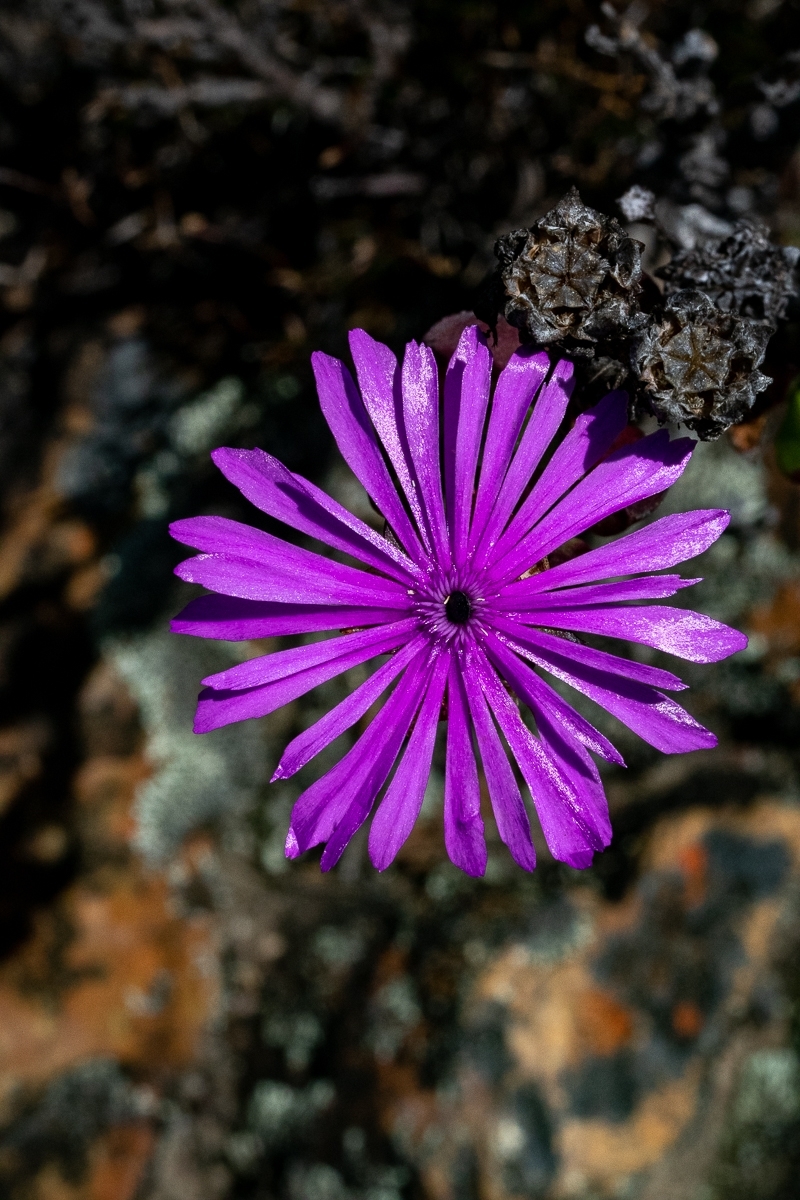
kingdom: Plantae
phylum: Tracheophyta
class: Magnoliopsida
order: Caryophyllales
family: Aizoaceae
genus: Erepsia
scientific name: Erepsia inclaudens
